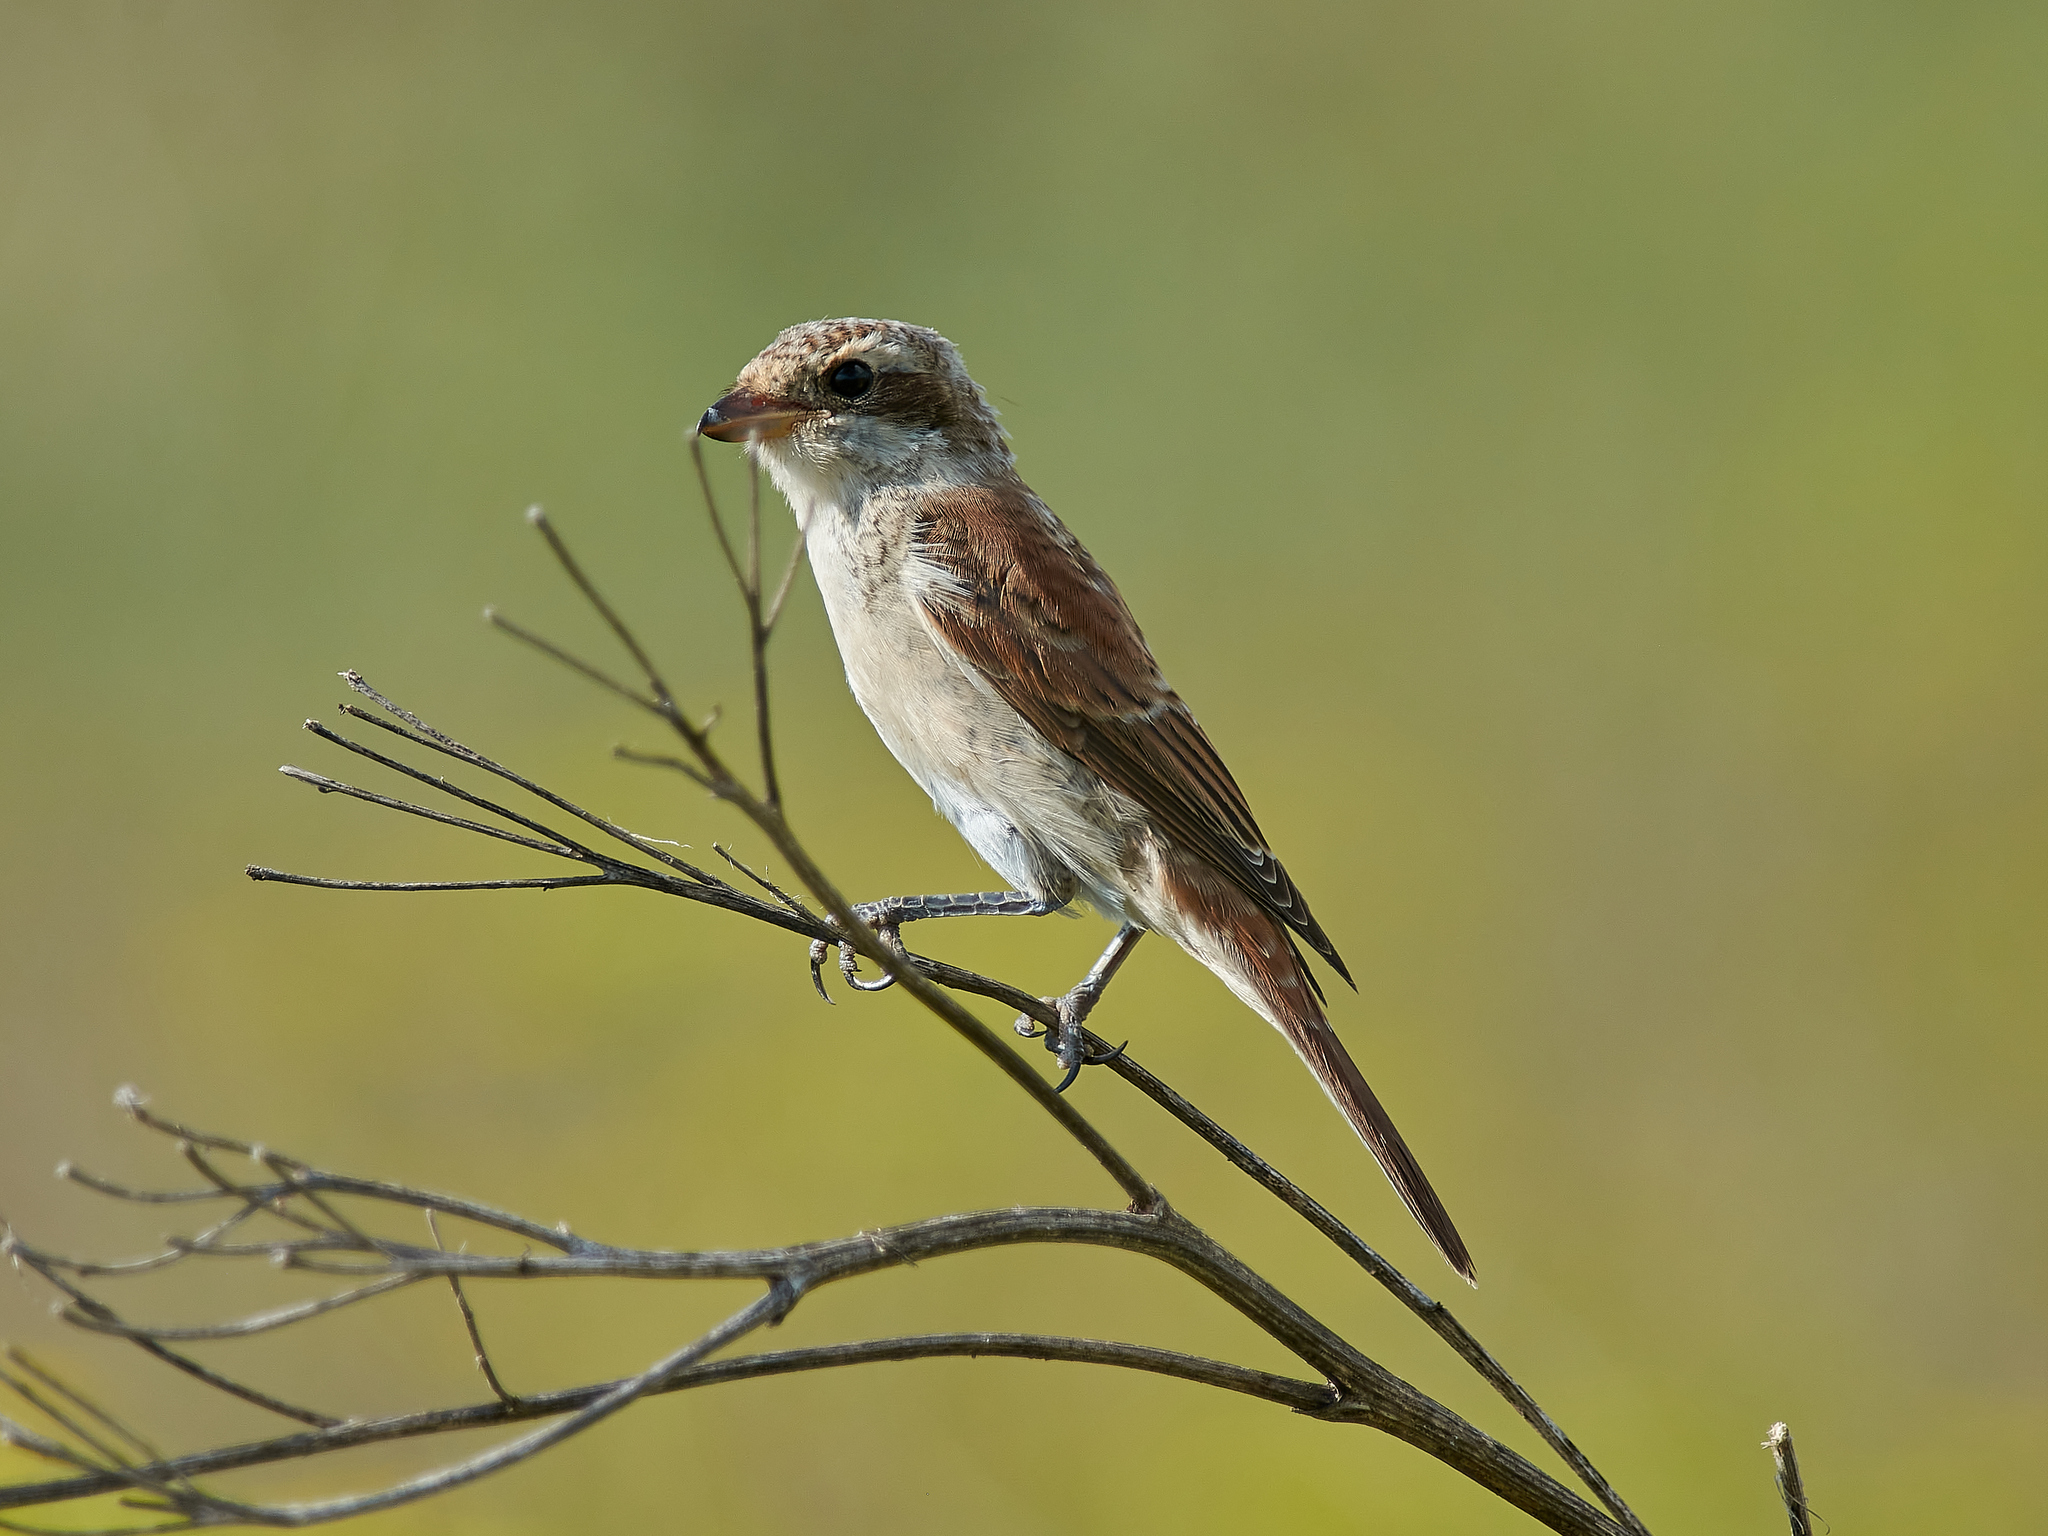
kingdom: Animalia
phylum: Chordata
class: Aves
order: Passeriformes
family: Laniidae
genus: Lanius
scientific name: Lanius collurio
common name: Red-backed shrike
